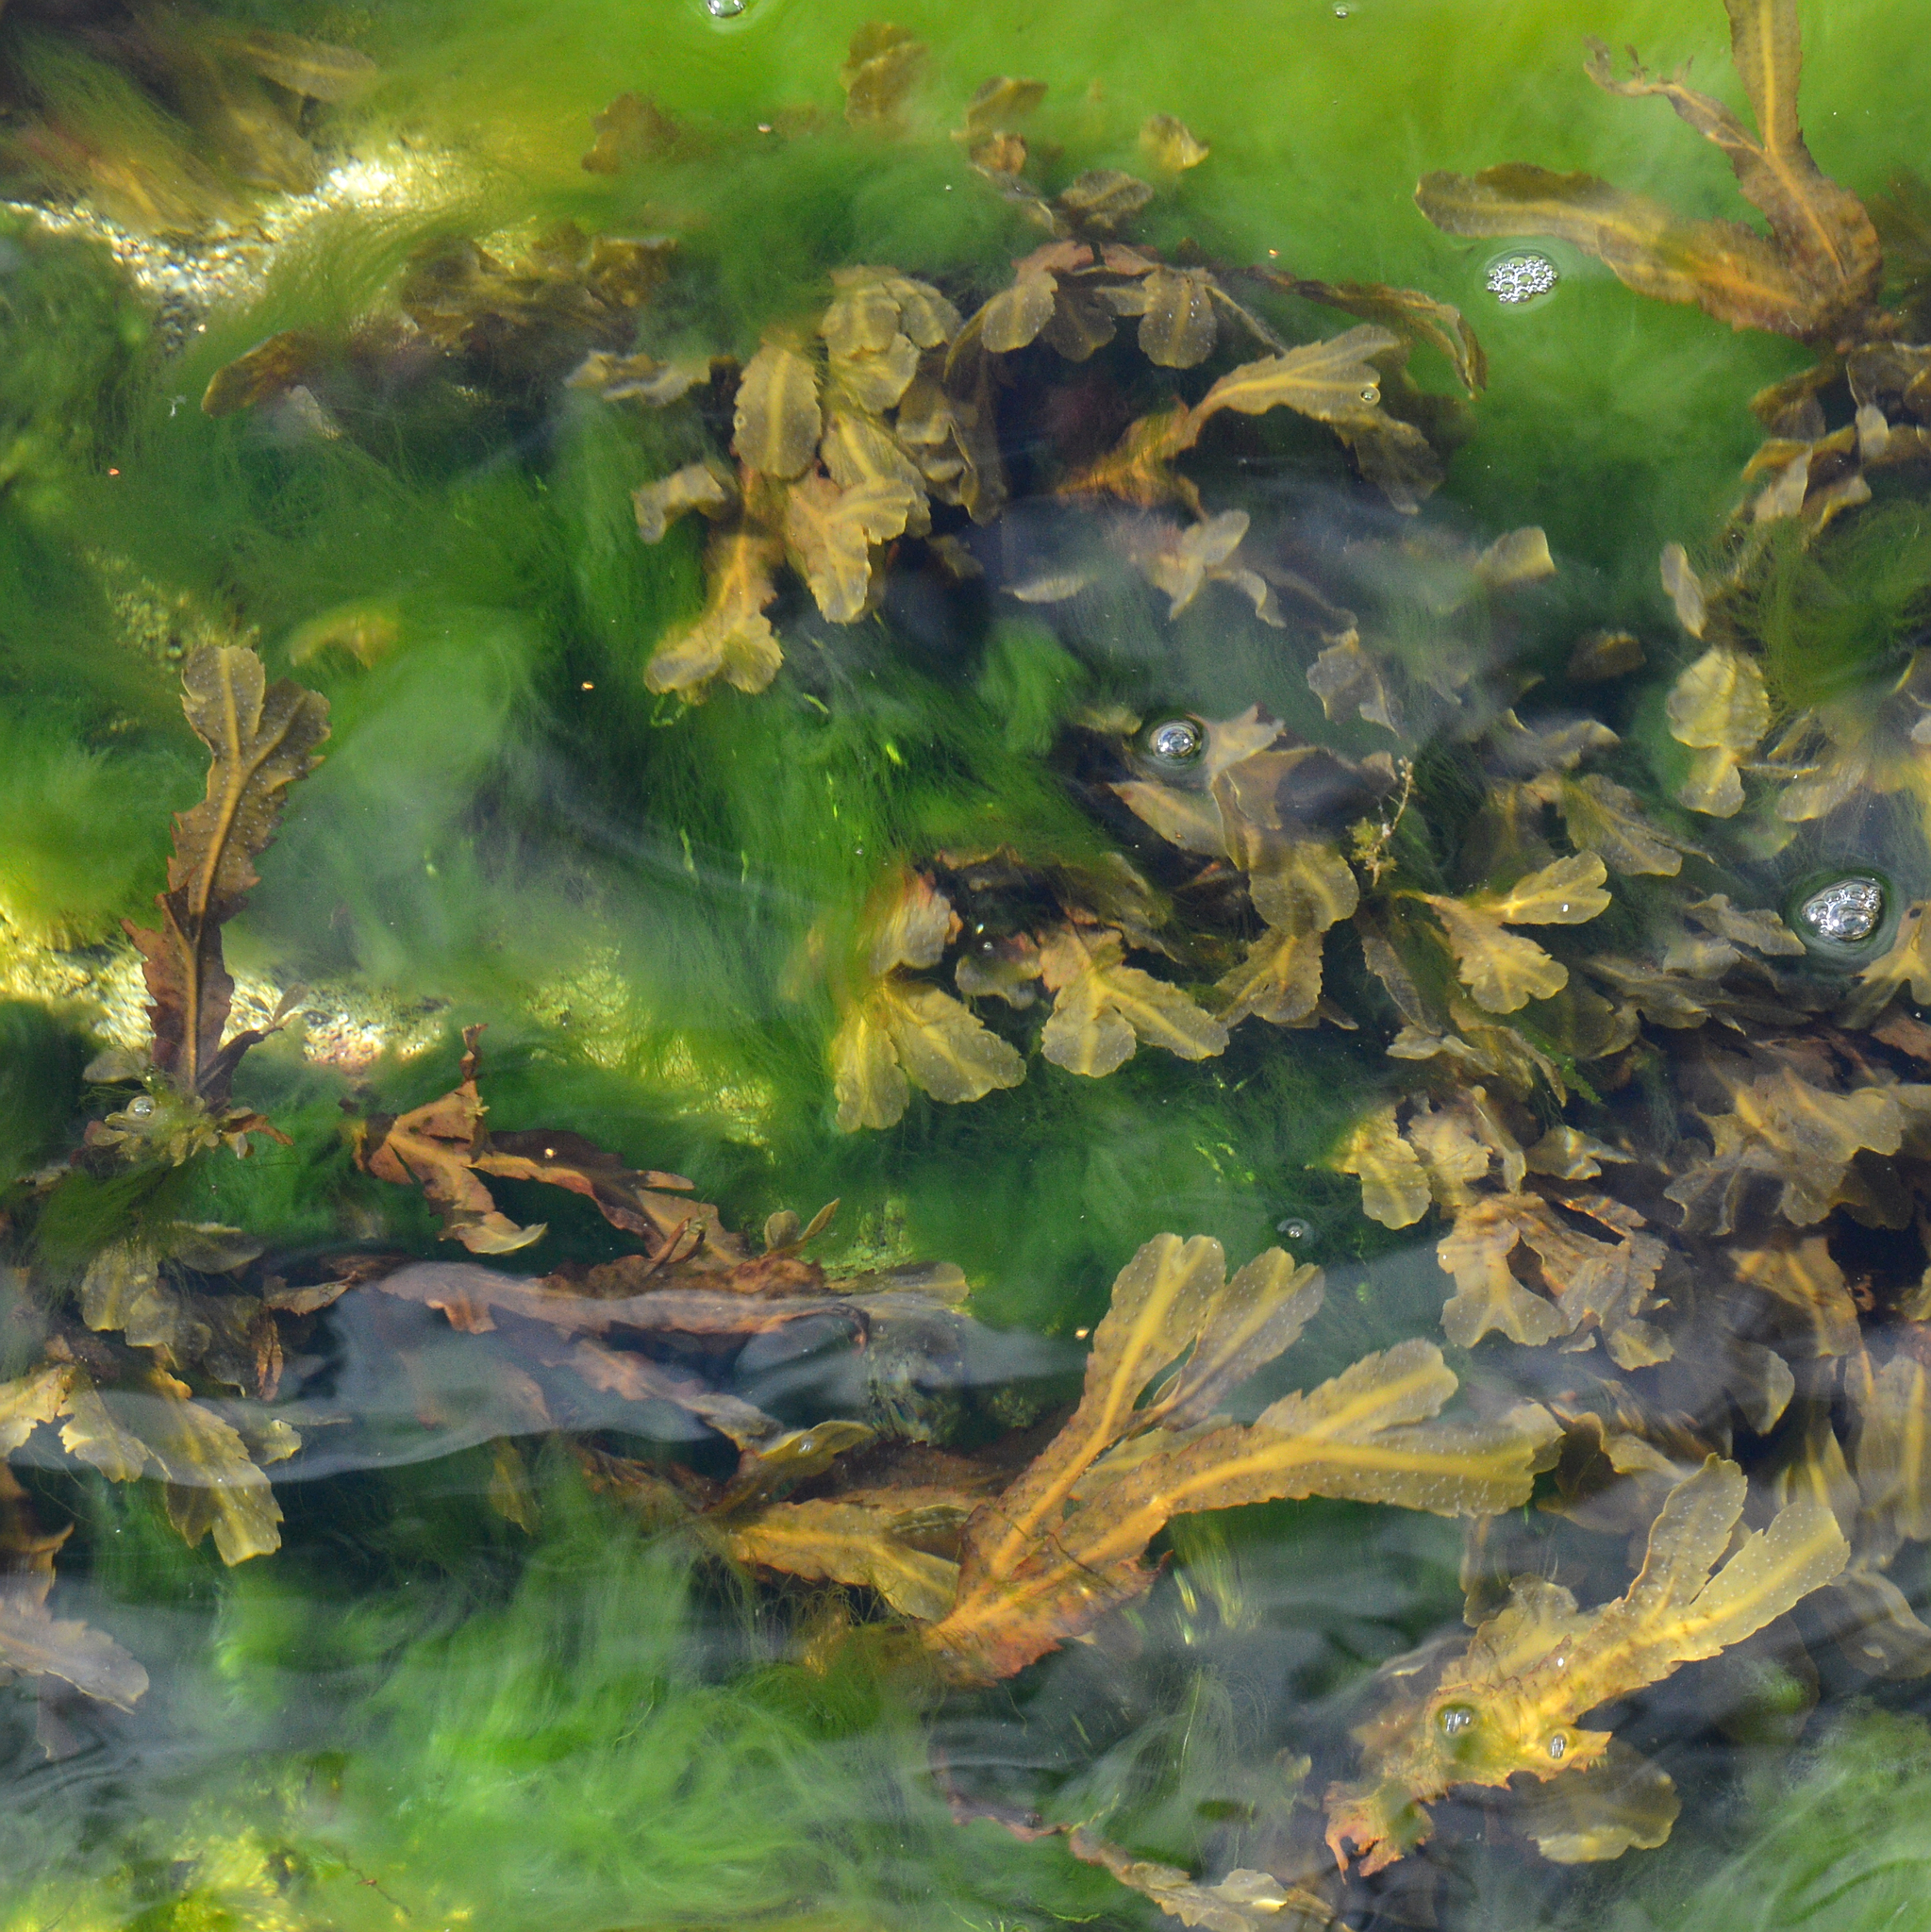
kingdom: Chromista
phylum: Ochrophyta
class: Phaeophyceae
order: Fucales
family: Fucaceae
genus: Fucus
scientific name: Fucus serratus
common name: Toothed wrack
